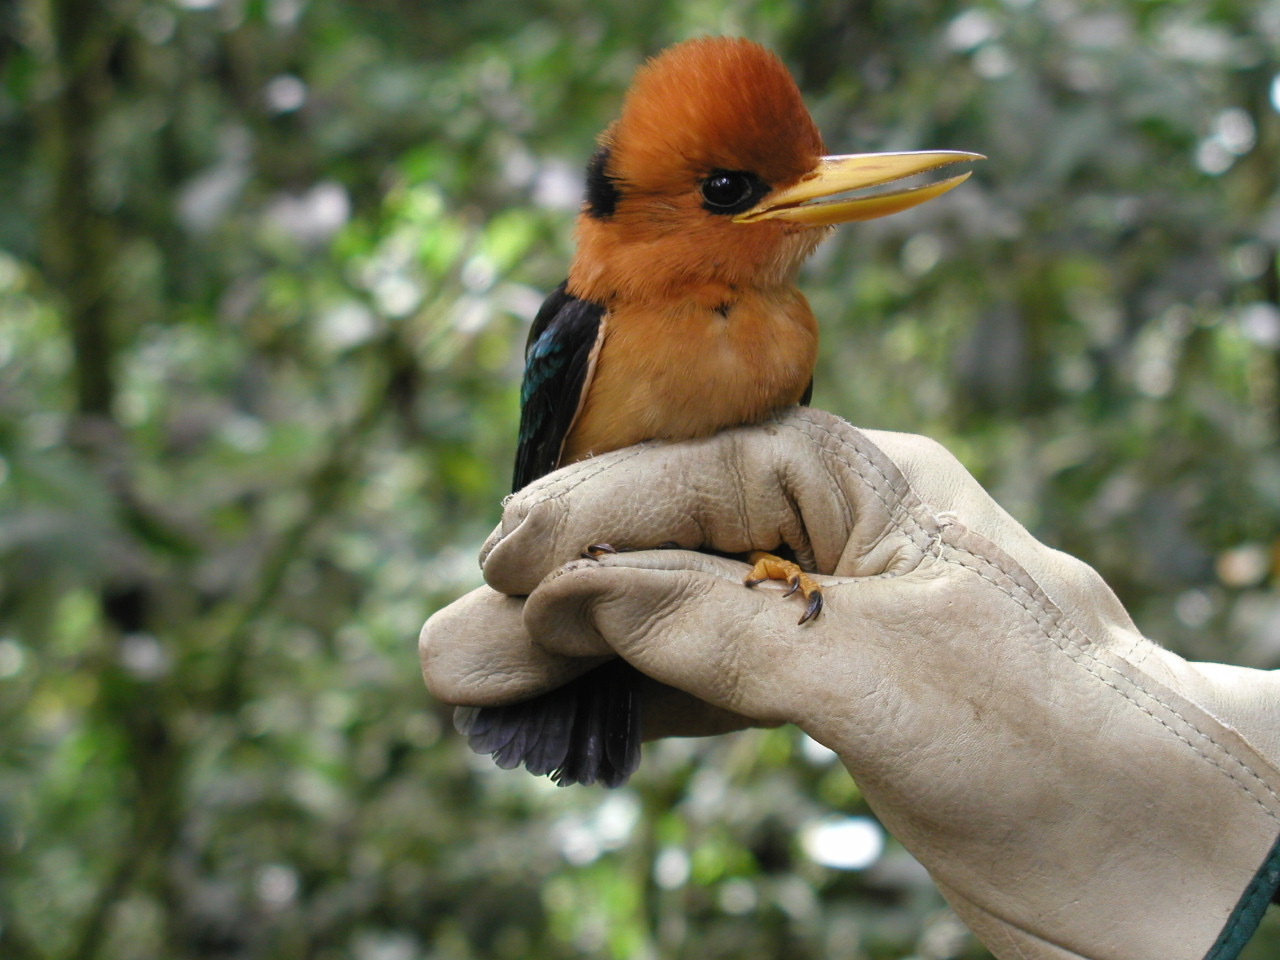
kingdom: Animalia
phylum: Chordata
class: Aves
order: Coraciiformes
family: Alcedinidae
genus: Syma
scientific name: Syma torotoro
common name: Yellow-billed kingfisher
